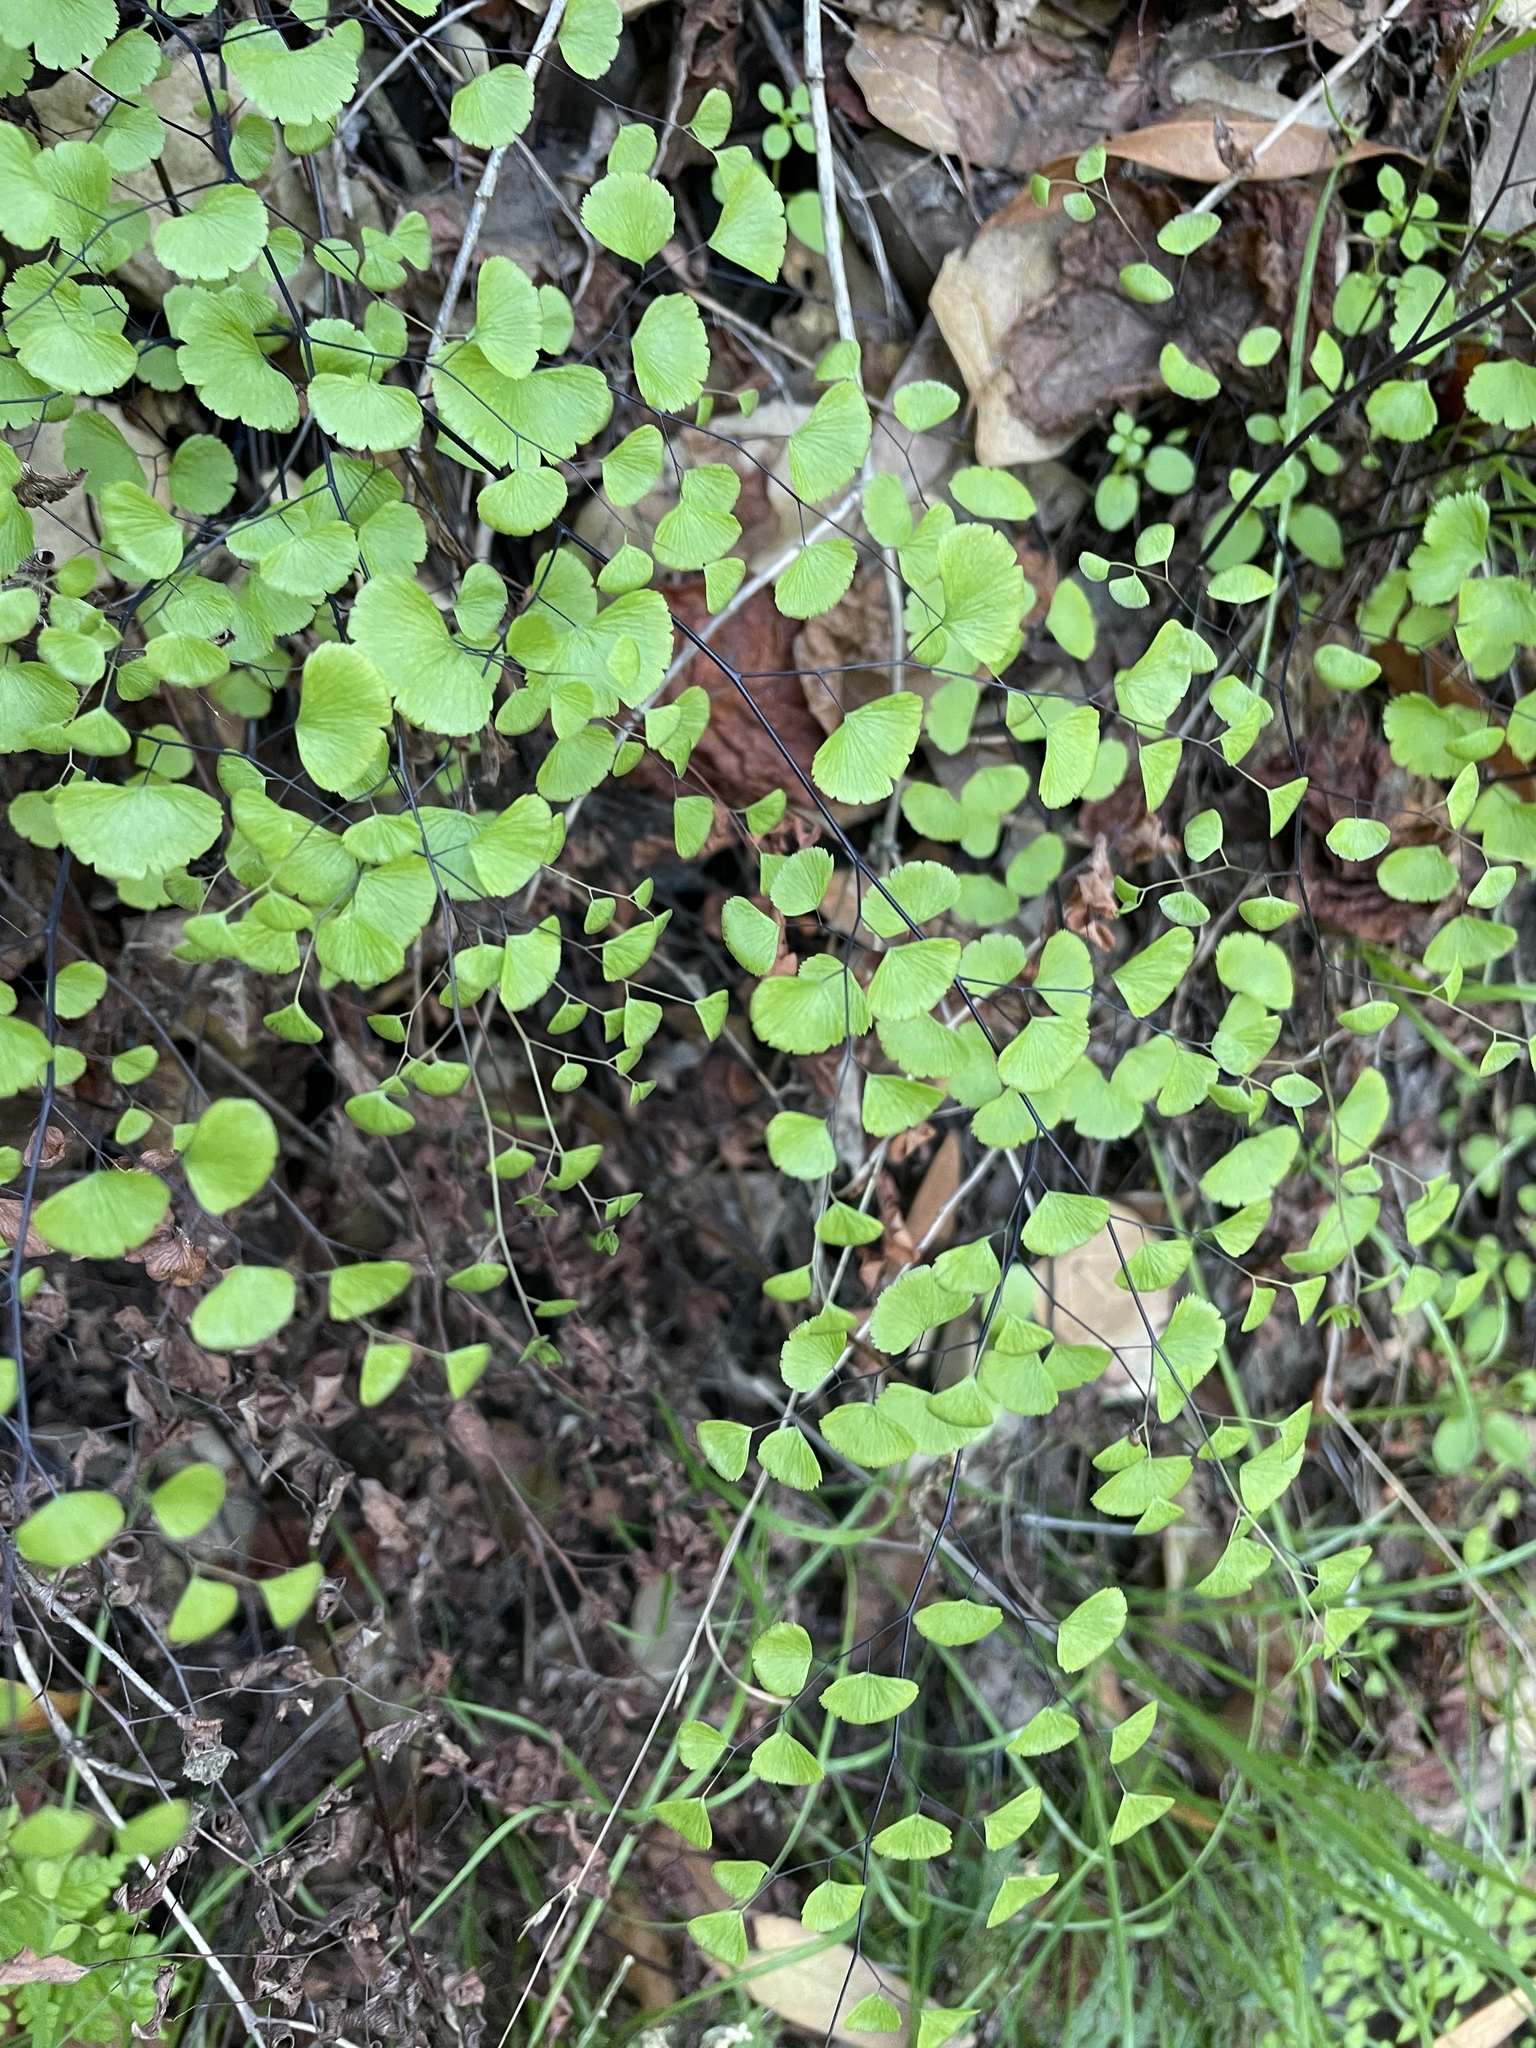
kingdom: Plantae
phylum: Tracheophyta
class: Polypodiopsida
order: Polypodiales
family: Pteridaceae
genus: Adiantum
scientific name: Adiantum jordanii
